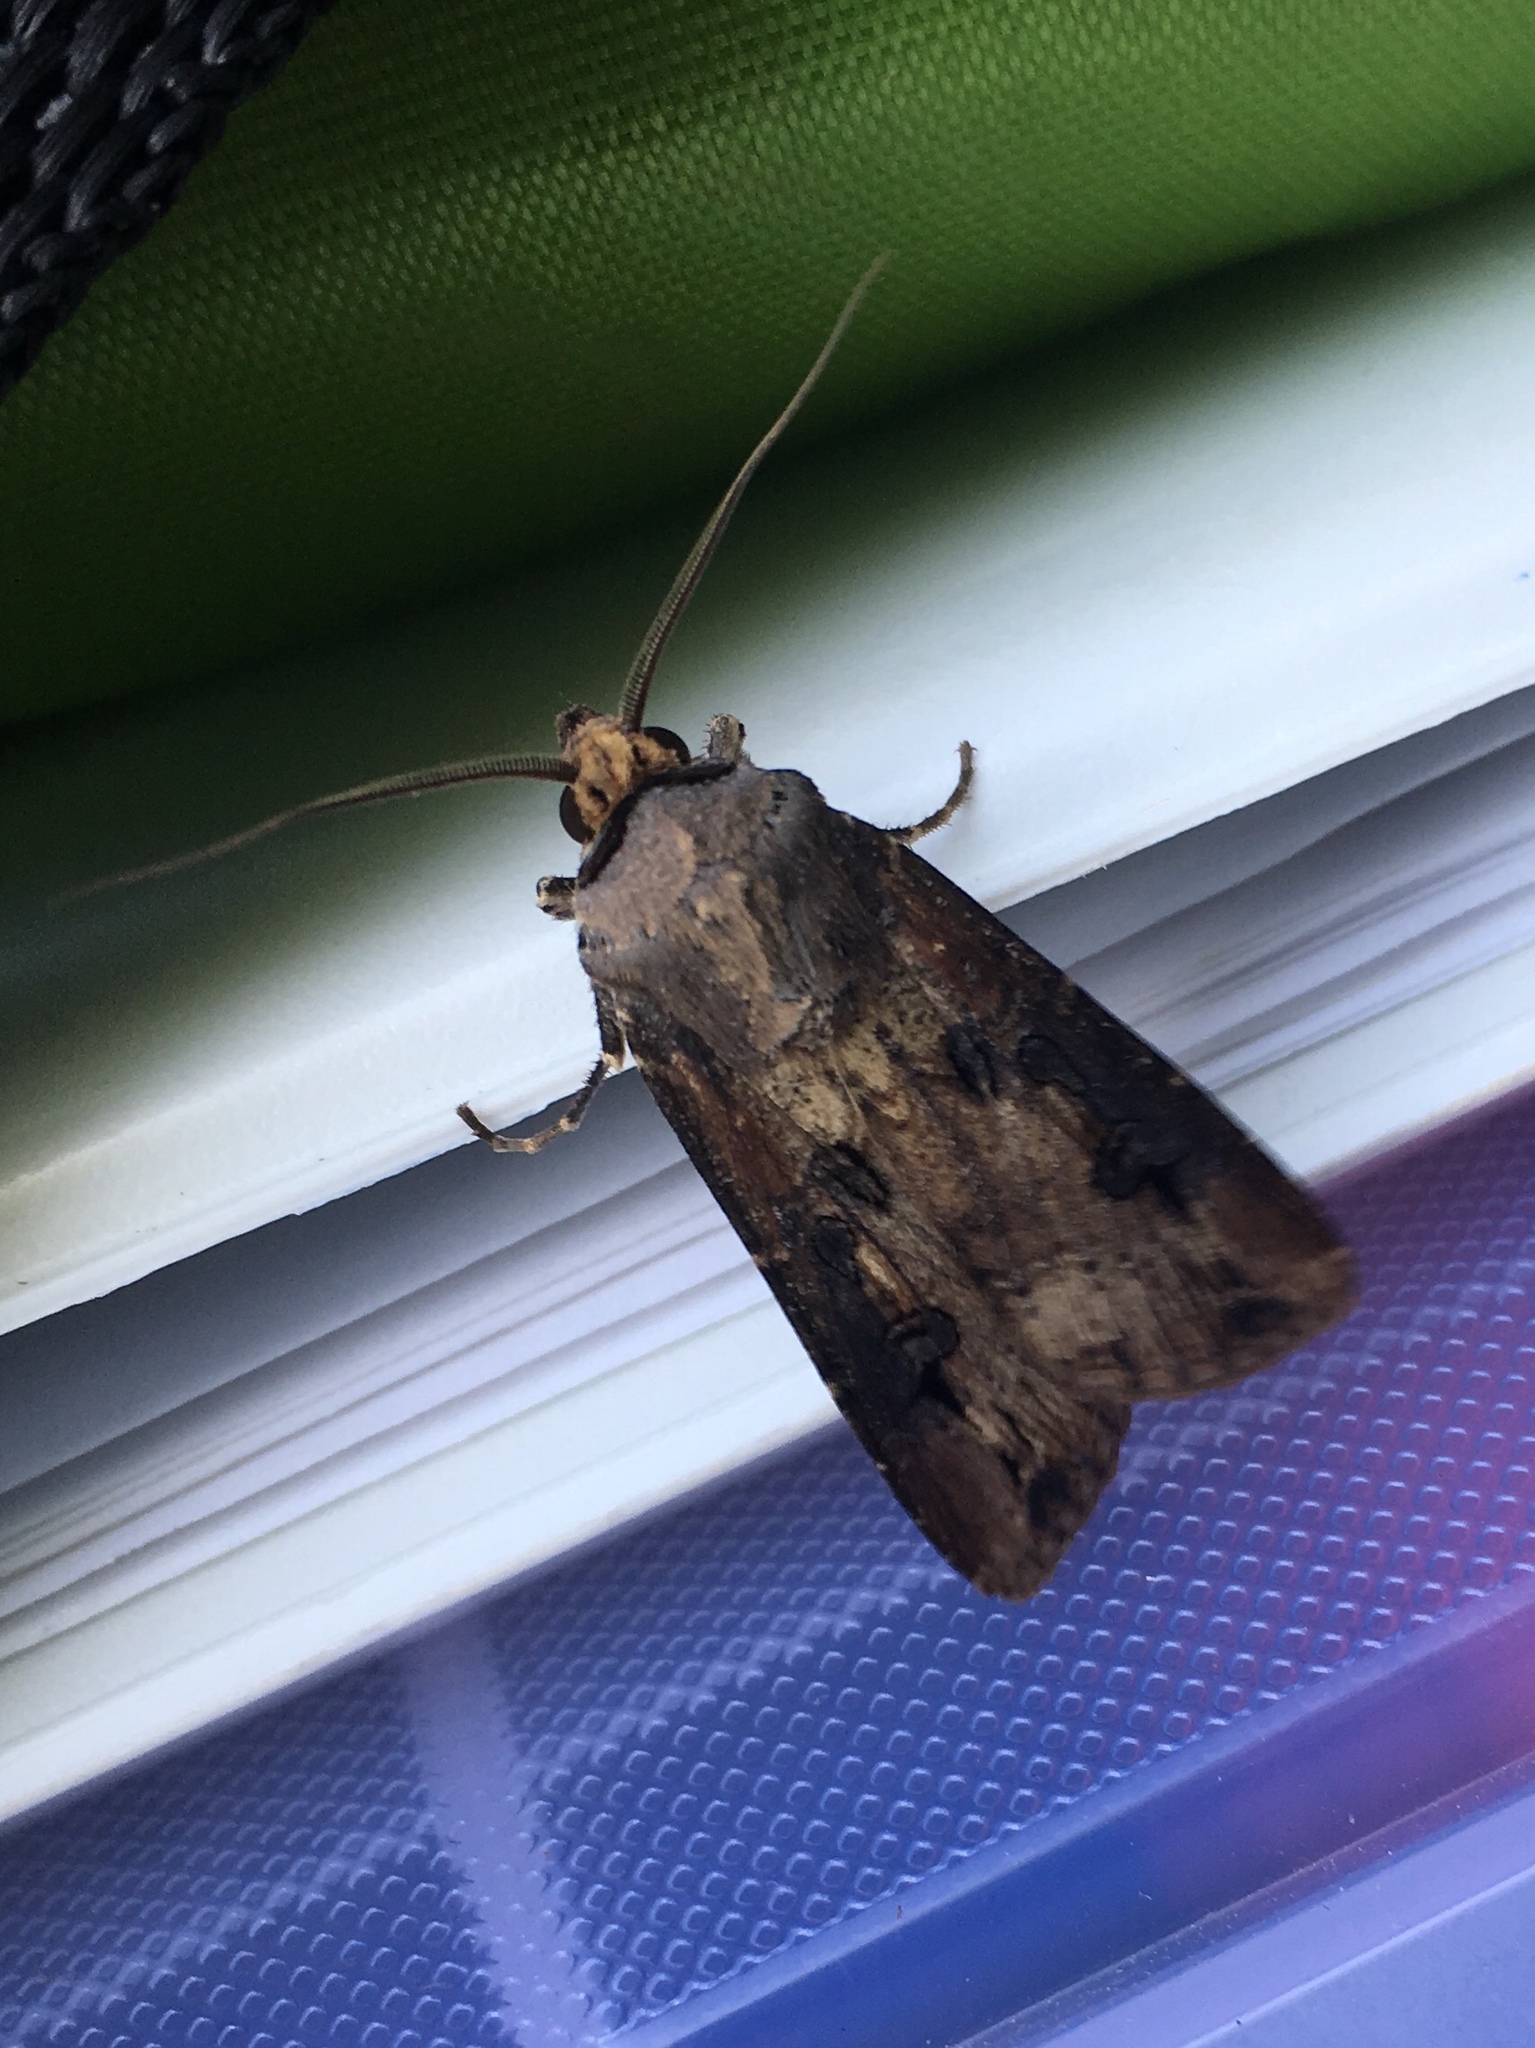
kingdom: Animalia
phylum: Arthropoda
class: Insecta
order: Lepidoptera
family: Noctuidae
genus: Agrotis
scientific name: Agrotis ipsilon
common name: Dark sword-grass
